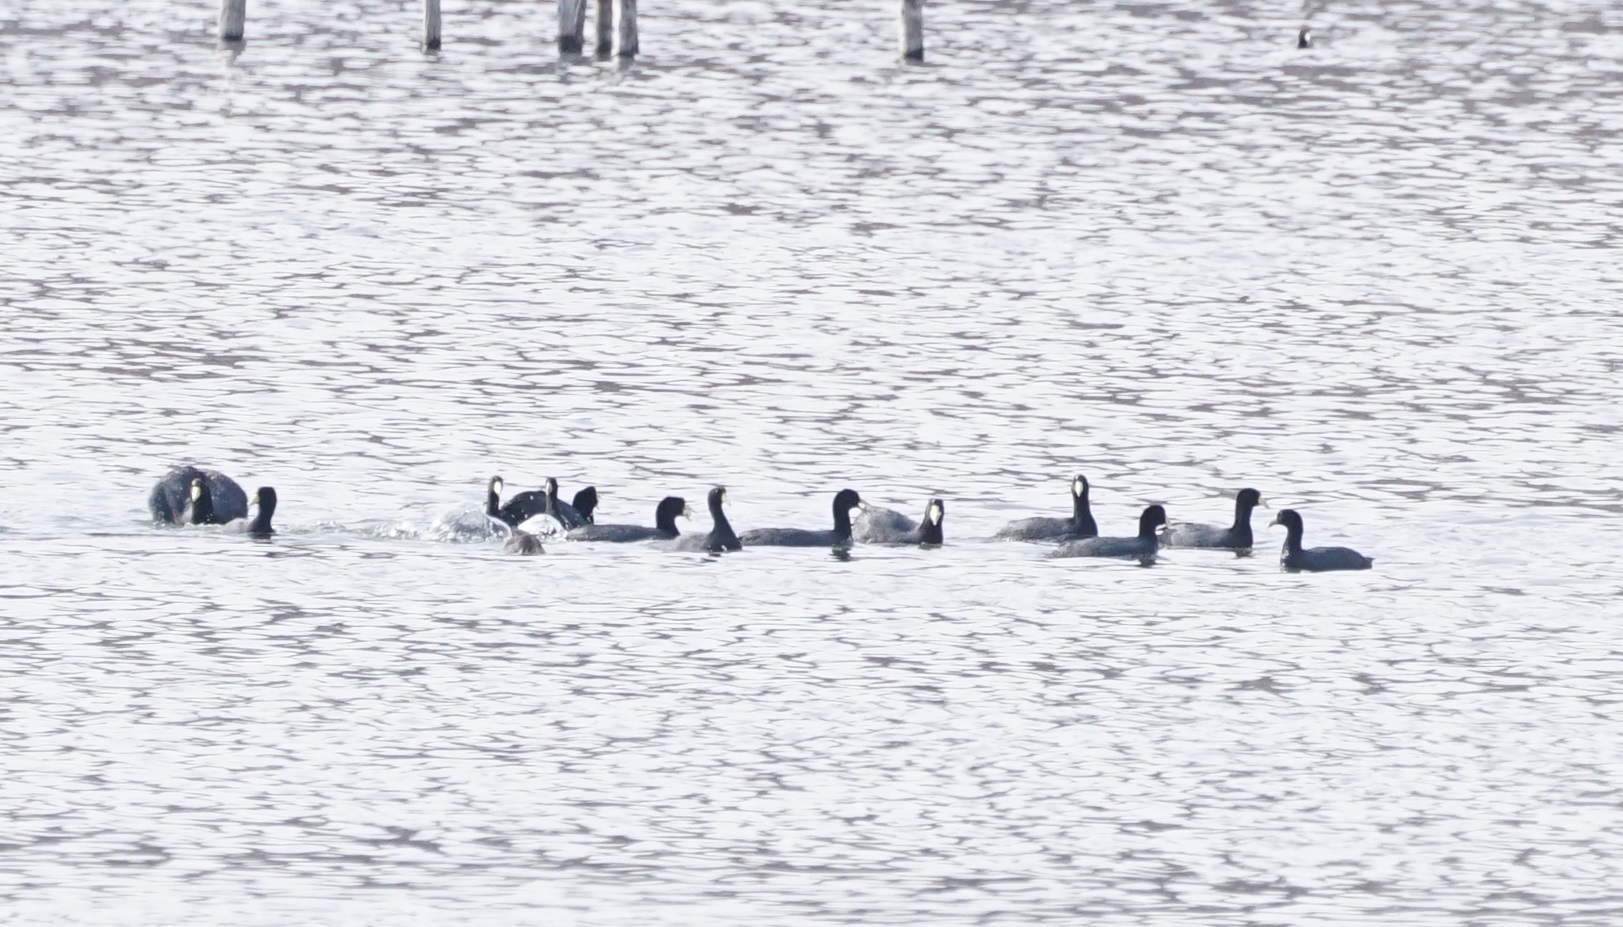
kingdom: Animalia
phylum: Chordata
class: Aves
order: Gruiformes
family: Rallidae
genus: Fulica
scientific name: Fulica ardesiaca
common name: Andean coot
